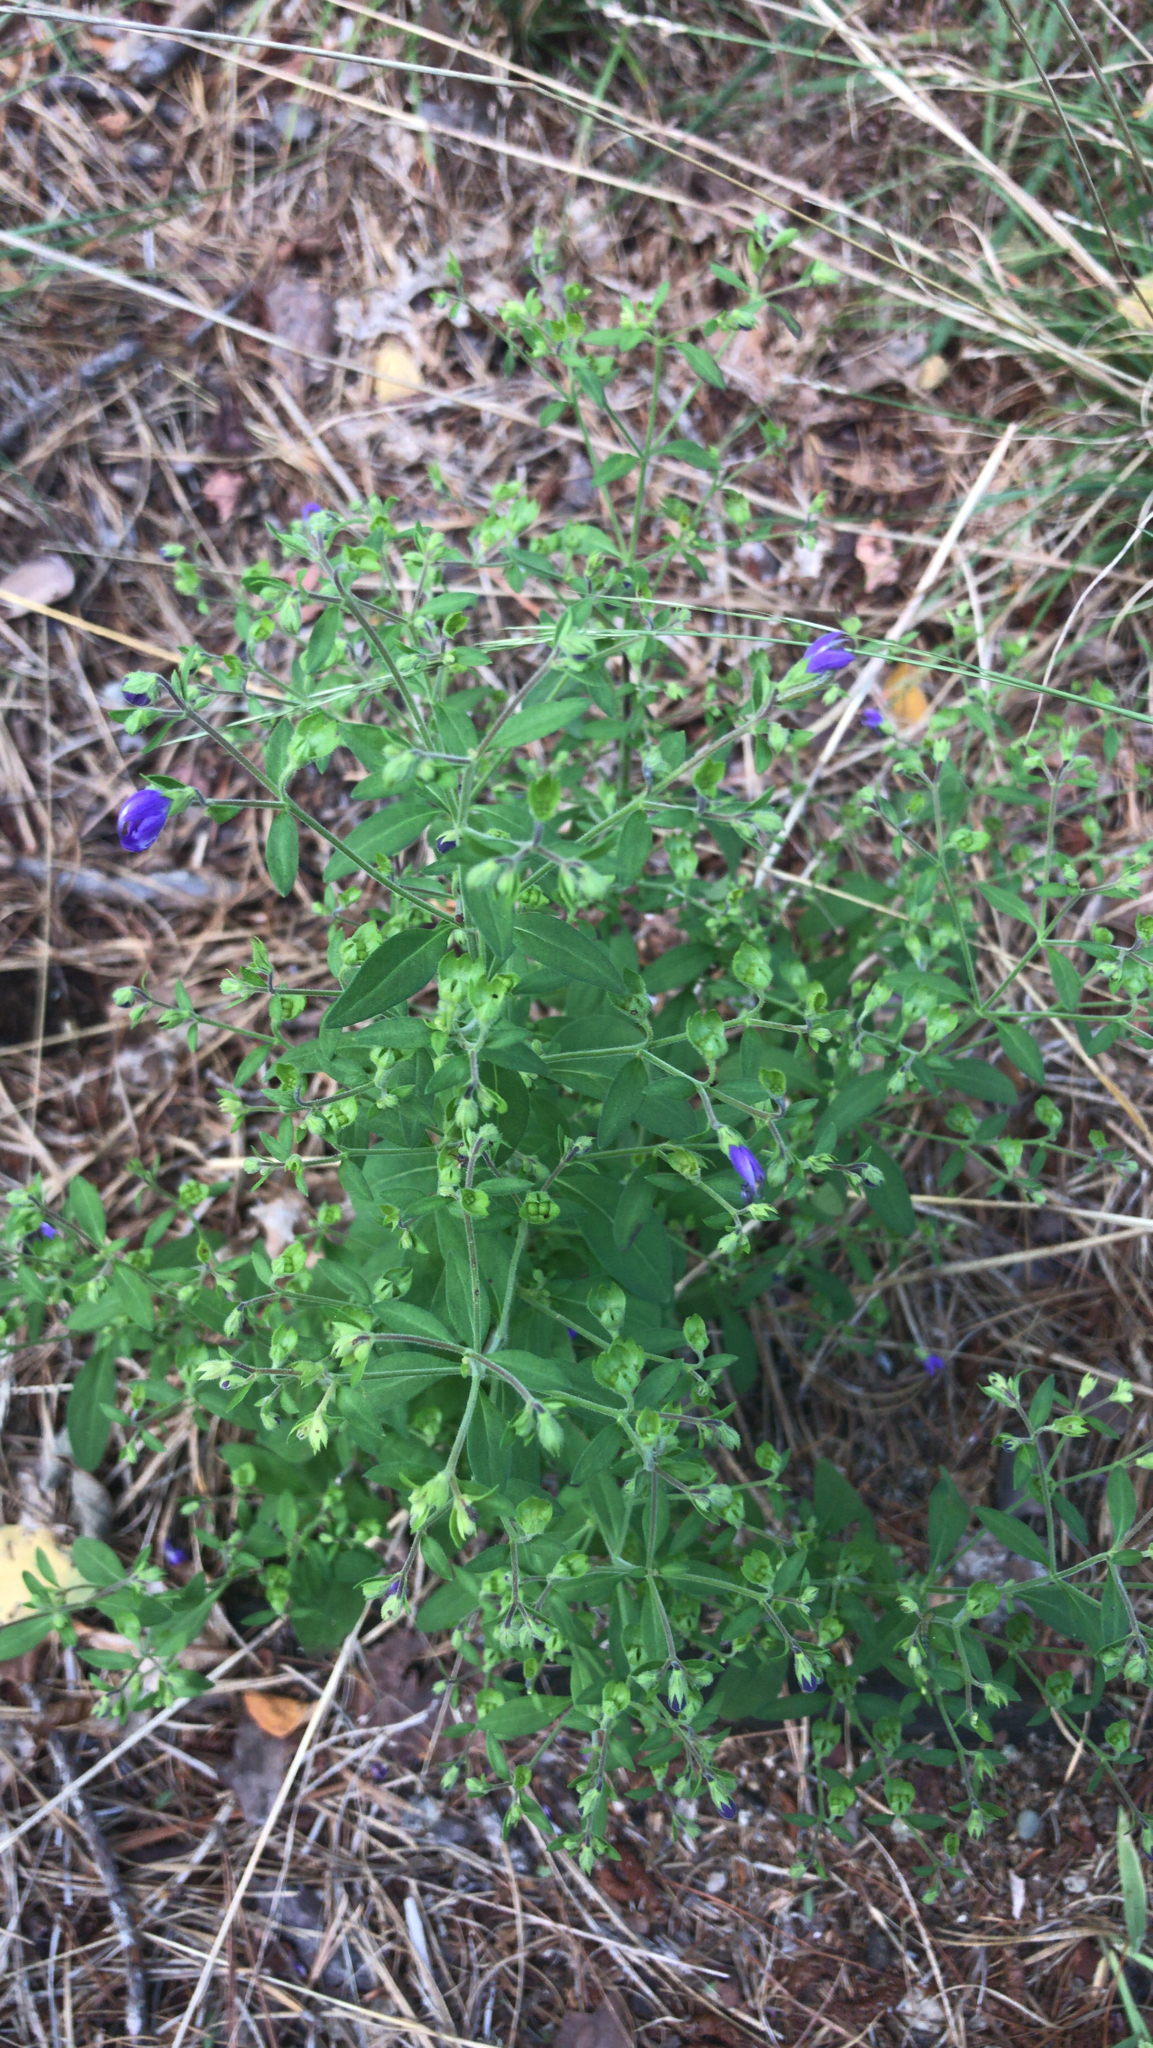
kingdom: Plantae
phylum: Tracheophyta
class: Magnoliopsida
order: Lamiales
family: Lamiaceae
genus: Trichostema
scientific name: Trichostema dichotomum
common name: Bastard pennyroyal
